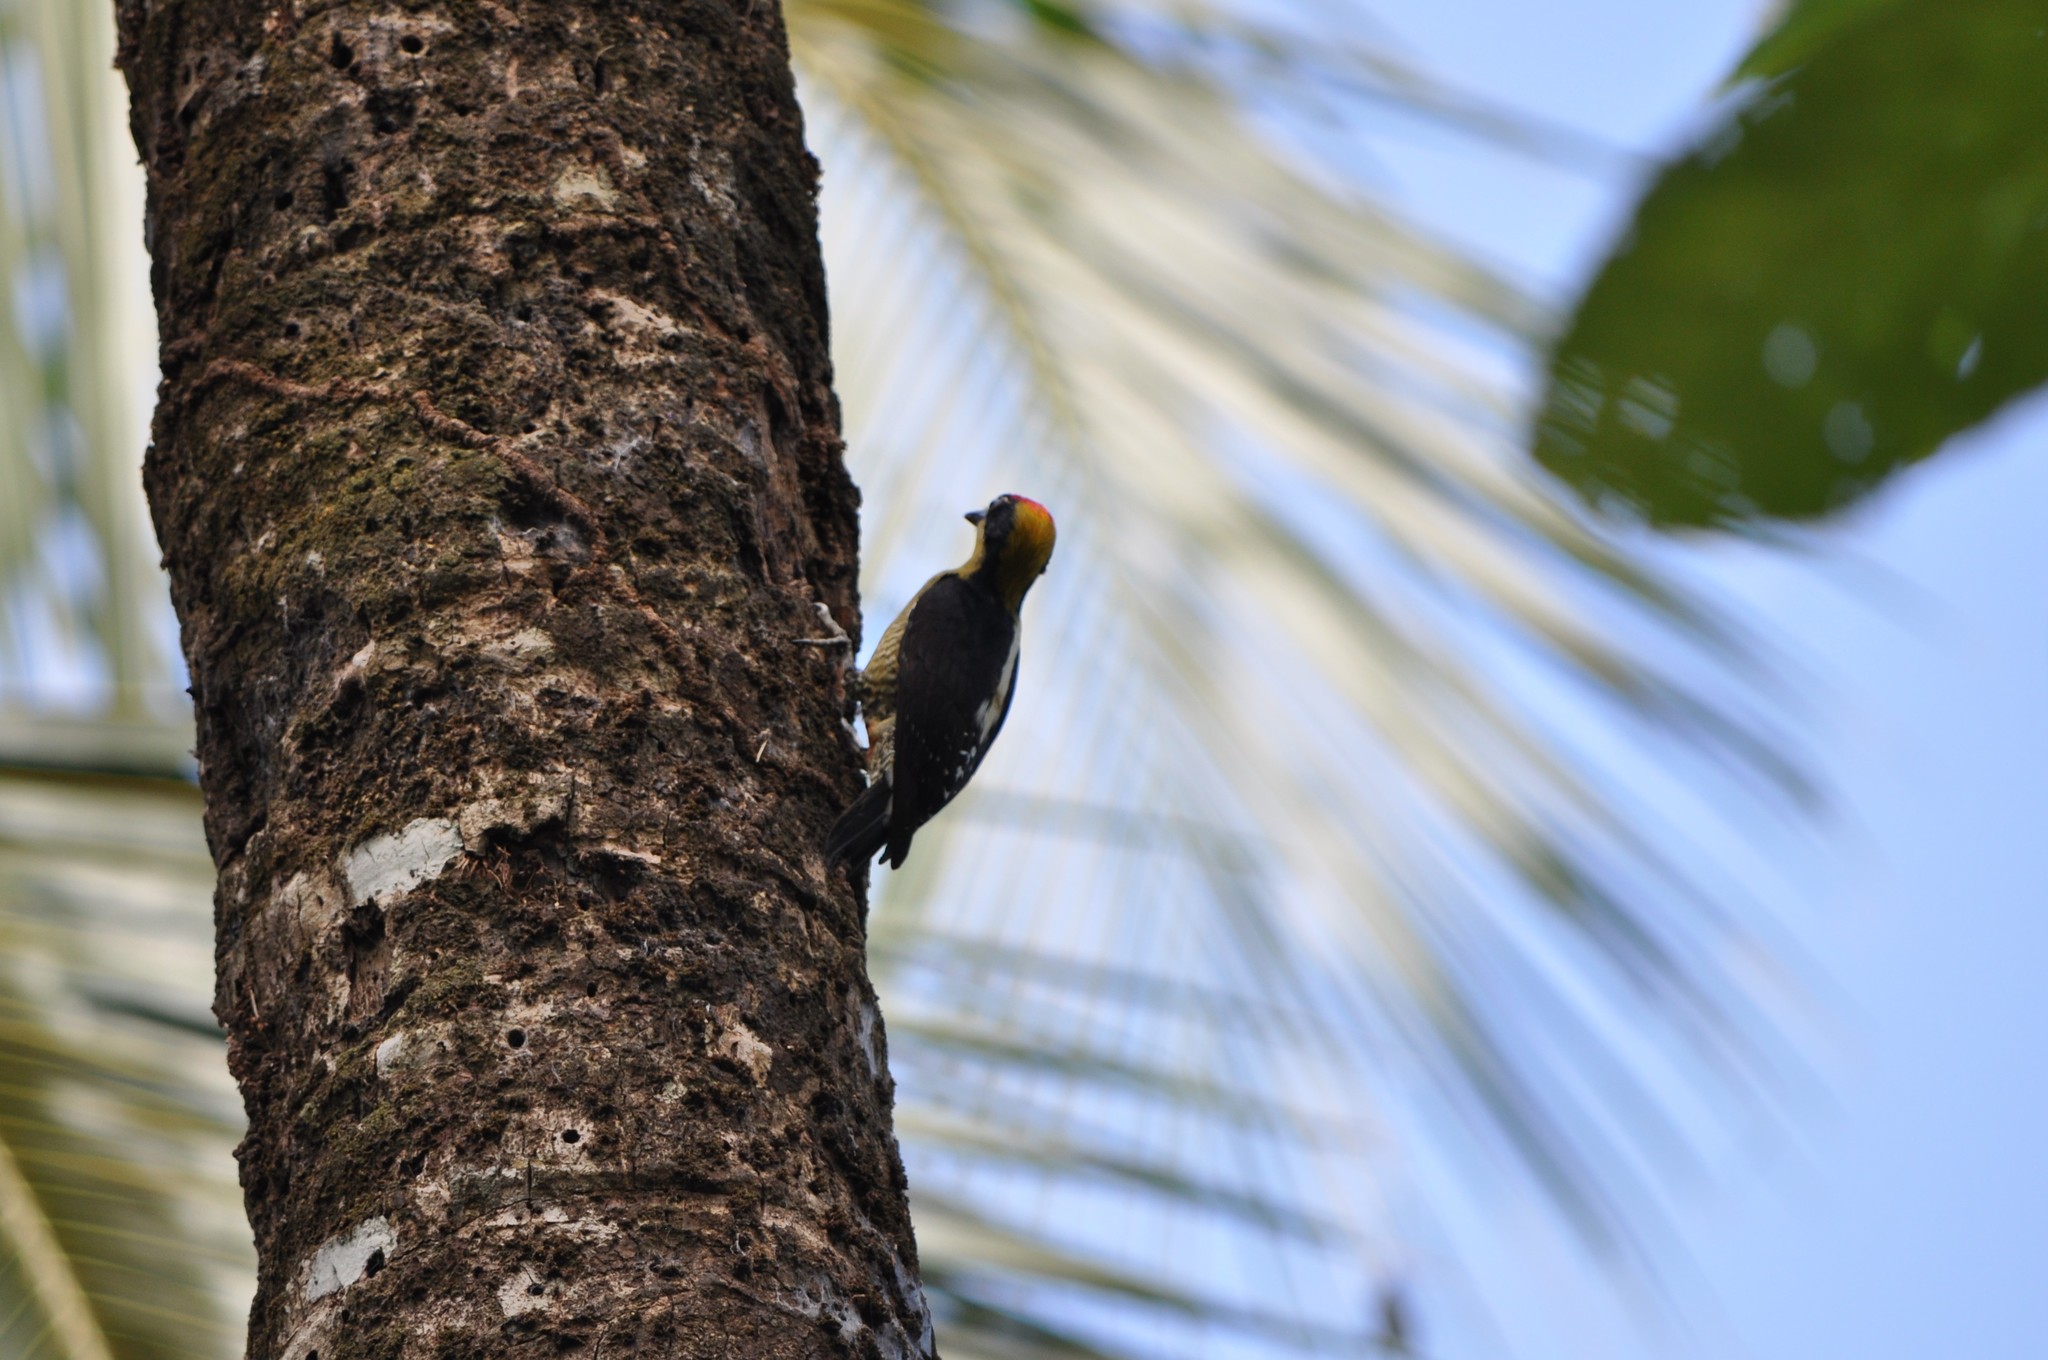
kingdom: Animalia
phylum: Chordata
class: Aves
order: Piciformes
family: Picidae
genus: Melanerpes
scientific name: Melanerpes chrysauchen
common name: Golden-naped woodpecker
